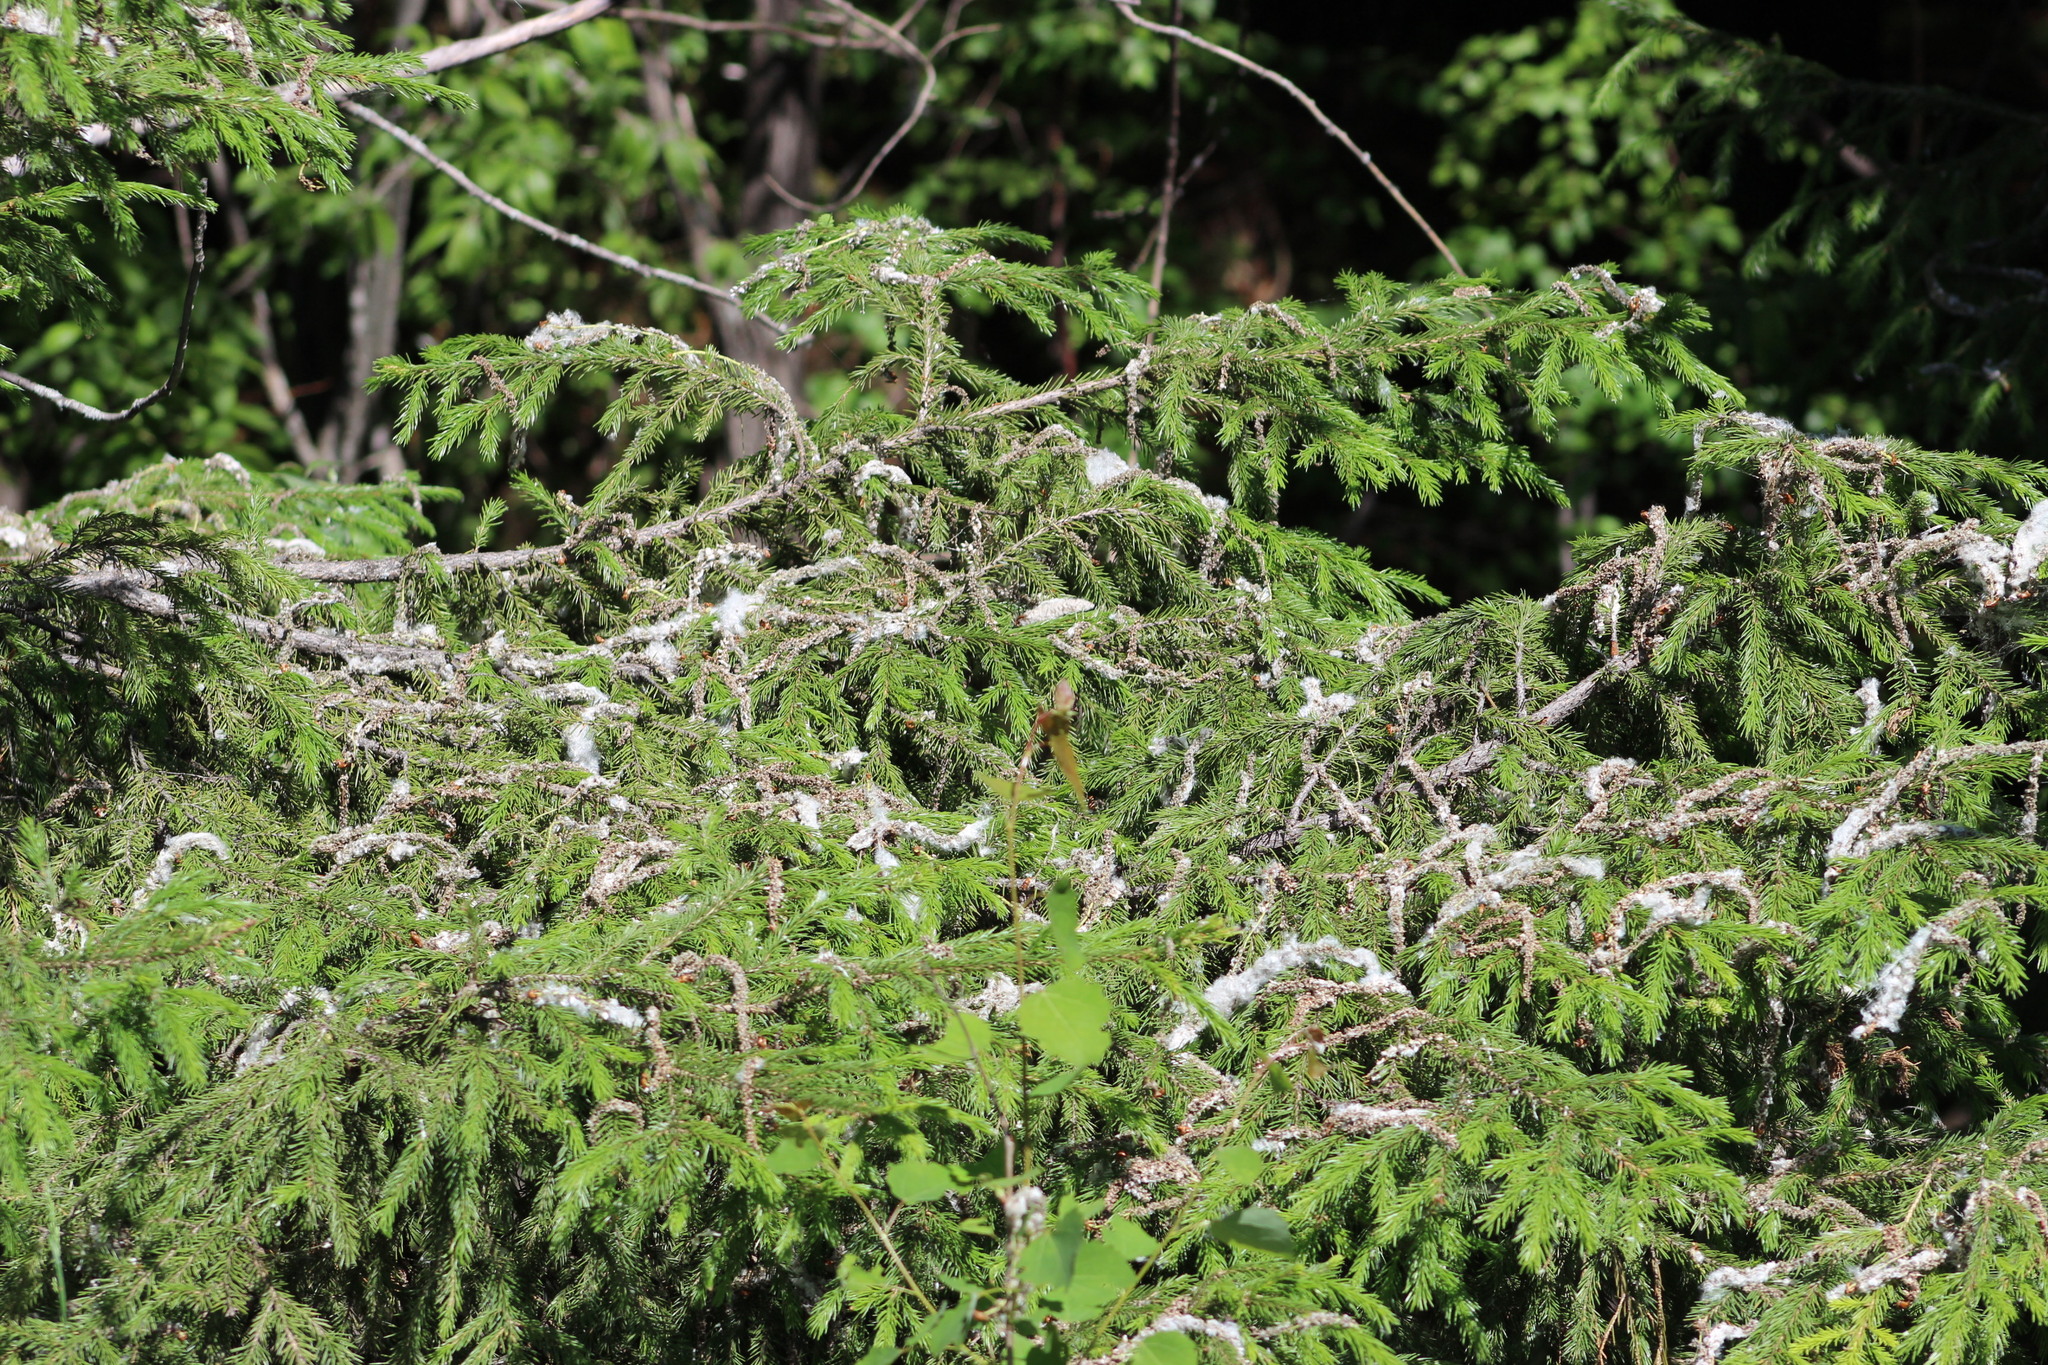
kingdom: Plantae
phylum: Tracheophyta
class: Pinopsida
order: Pinales
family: Pinaceae
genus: Picea
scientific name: Picea obovata
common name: Siberian spruce
